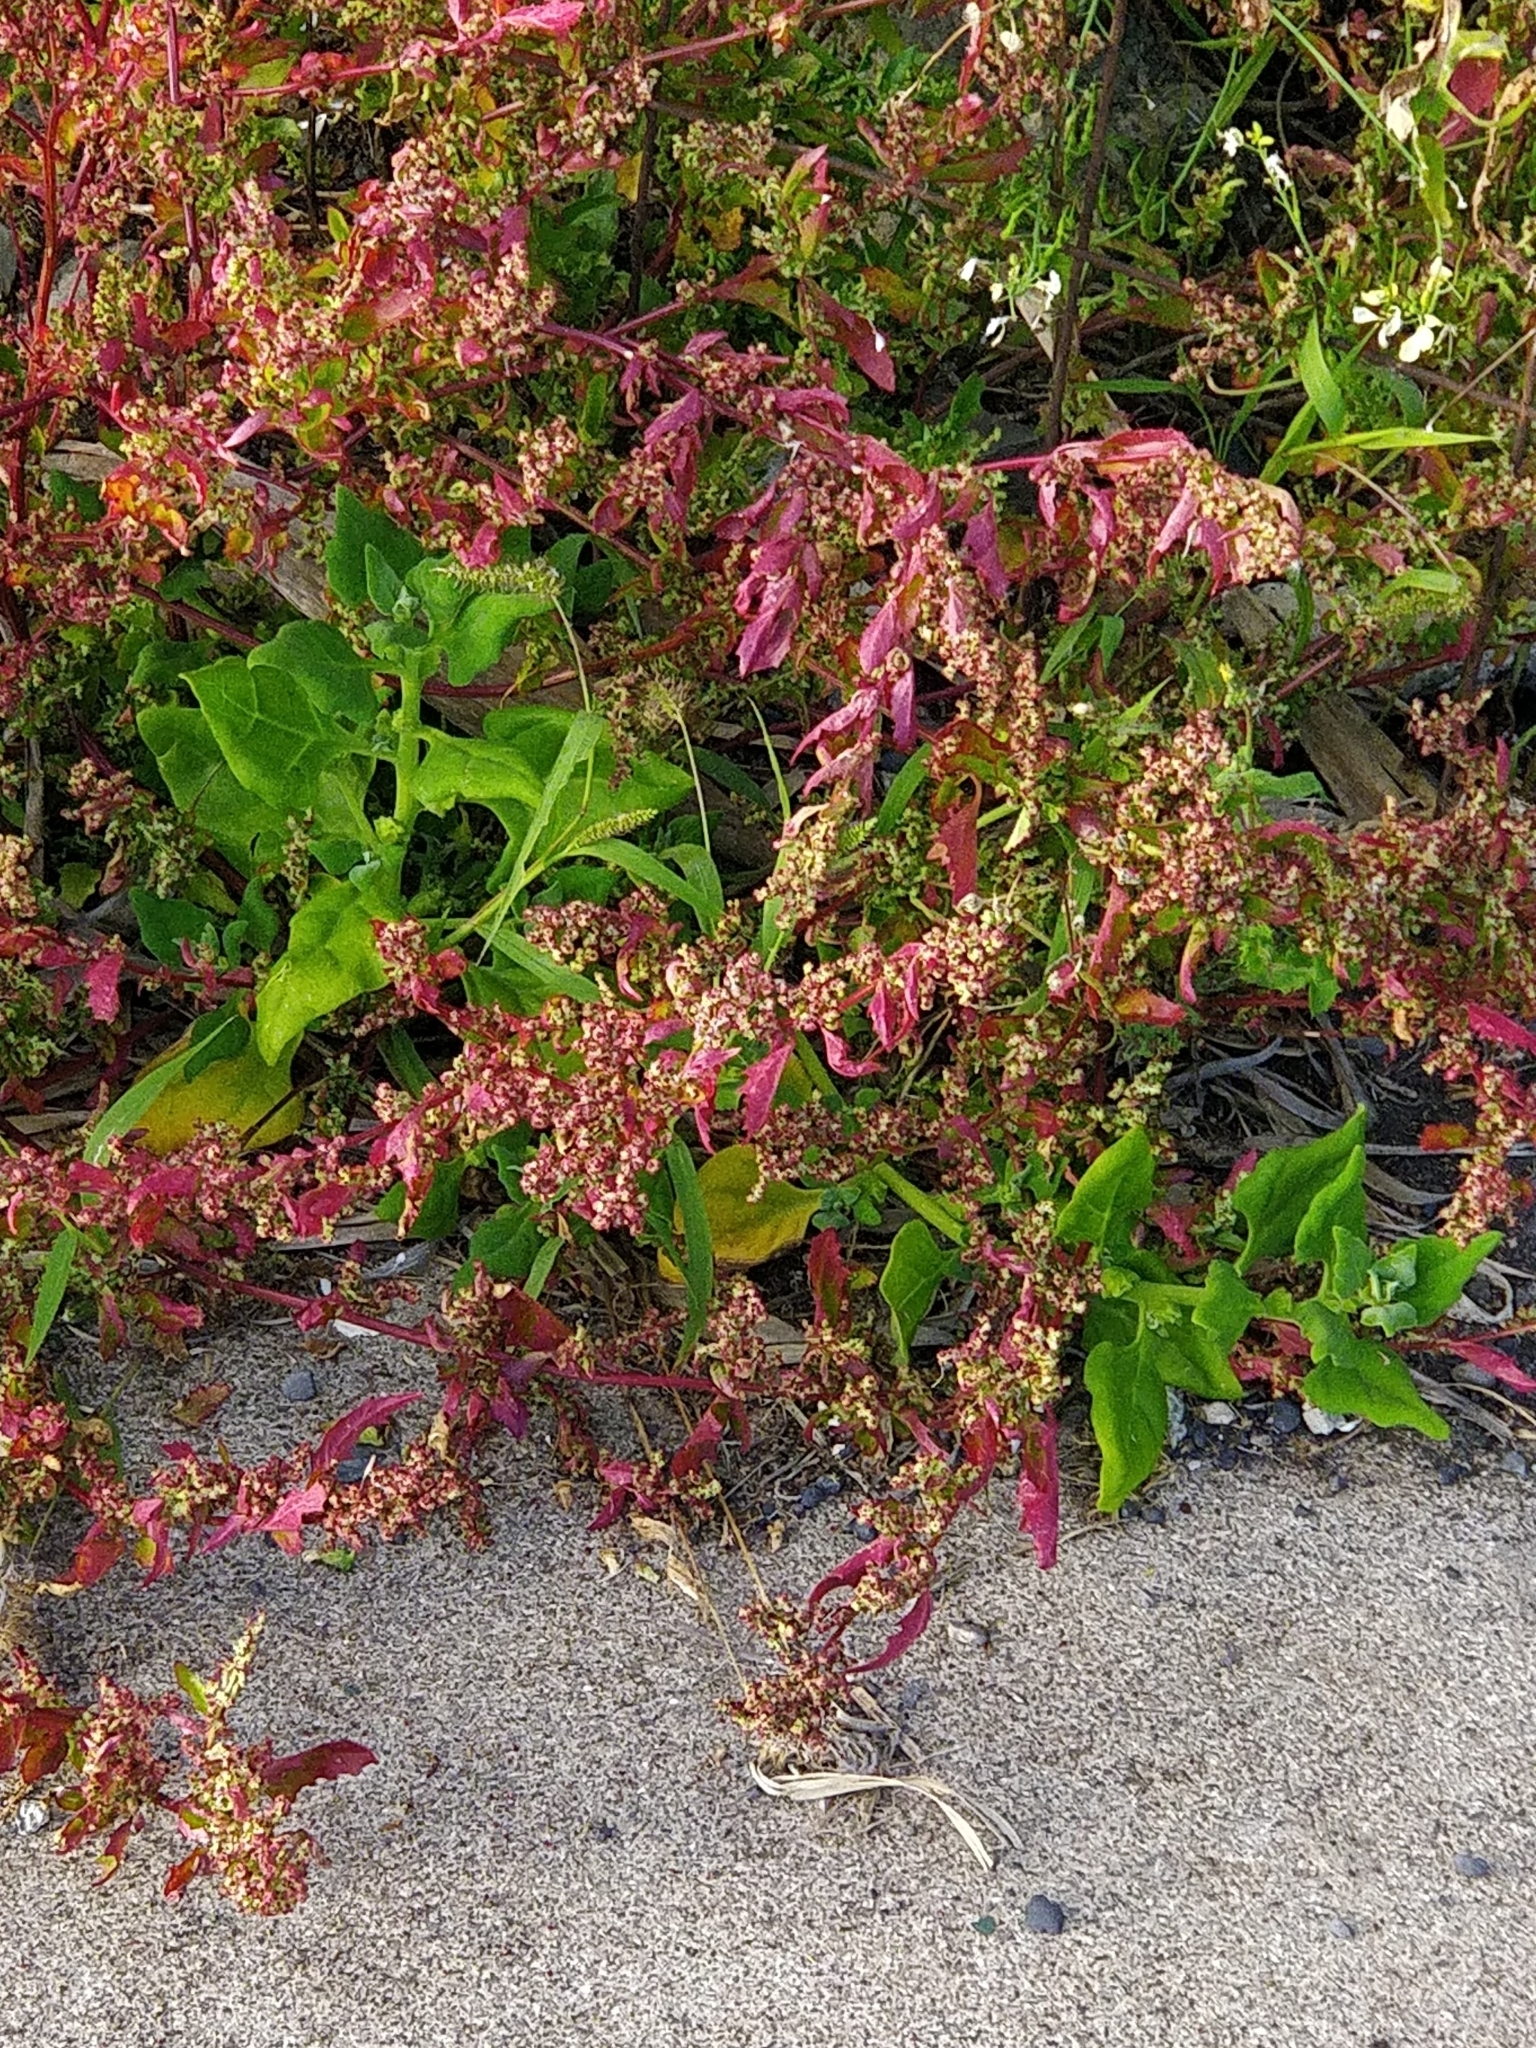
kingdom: Plantae
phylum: Tracheophyta
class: Magnoliopsida
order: Caryophyllales
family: Aizoaceae
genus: Tetragonia
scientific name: Tetragonia tetragonoides
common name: New zealand-spinach
